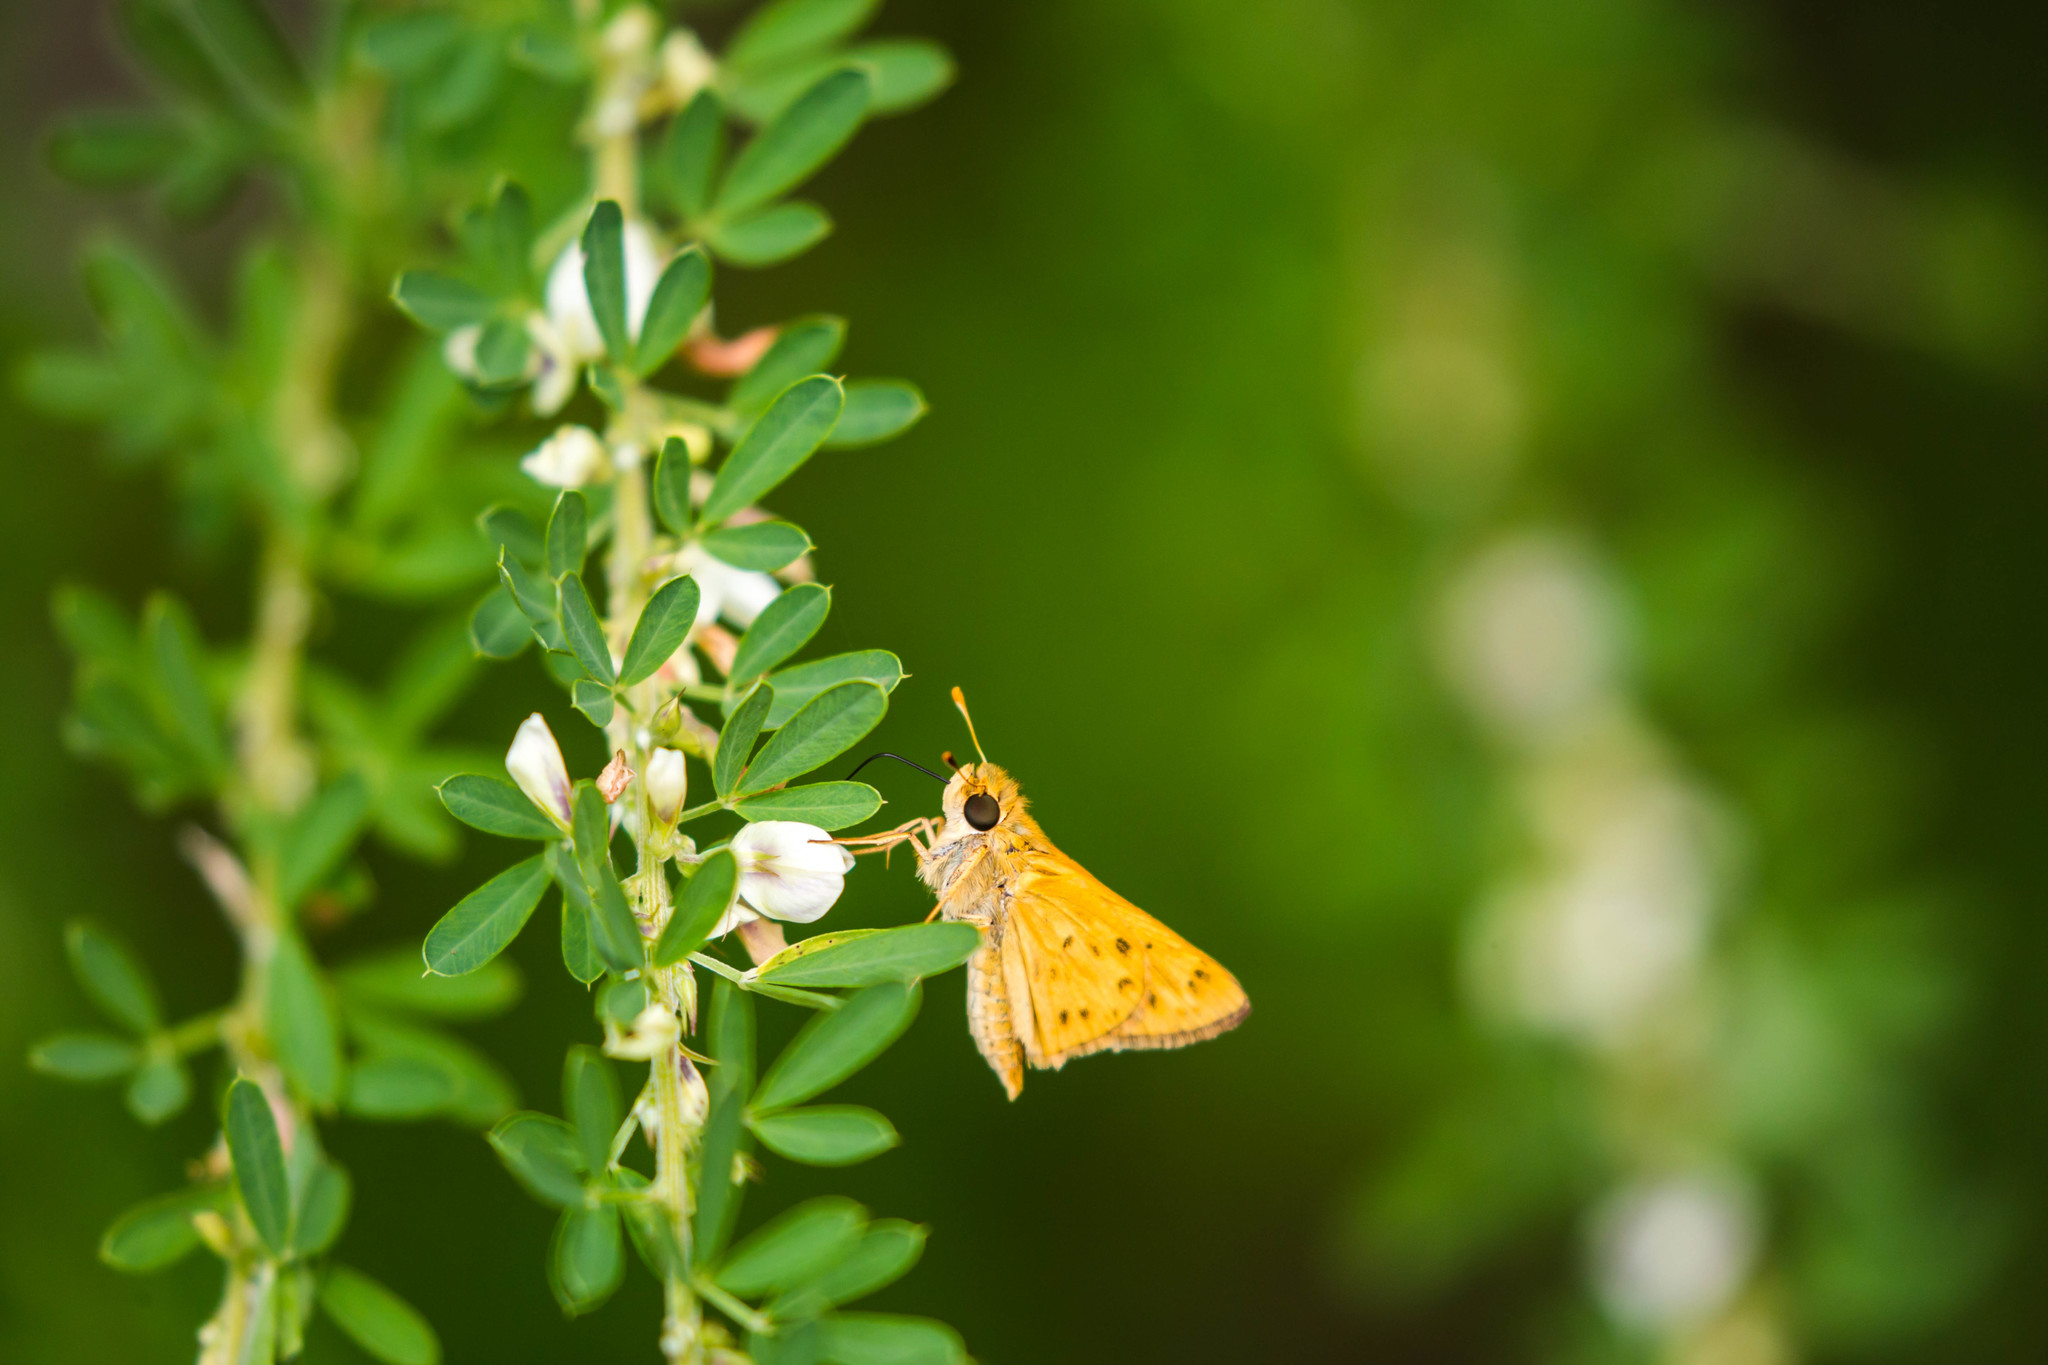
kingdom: Animalia
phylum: Arthropoda
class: Insecta
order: Lepidoptera
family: Hesperiidae
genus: Hylephila
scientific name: Hylephila phyleus
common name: Fiery skipper
